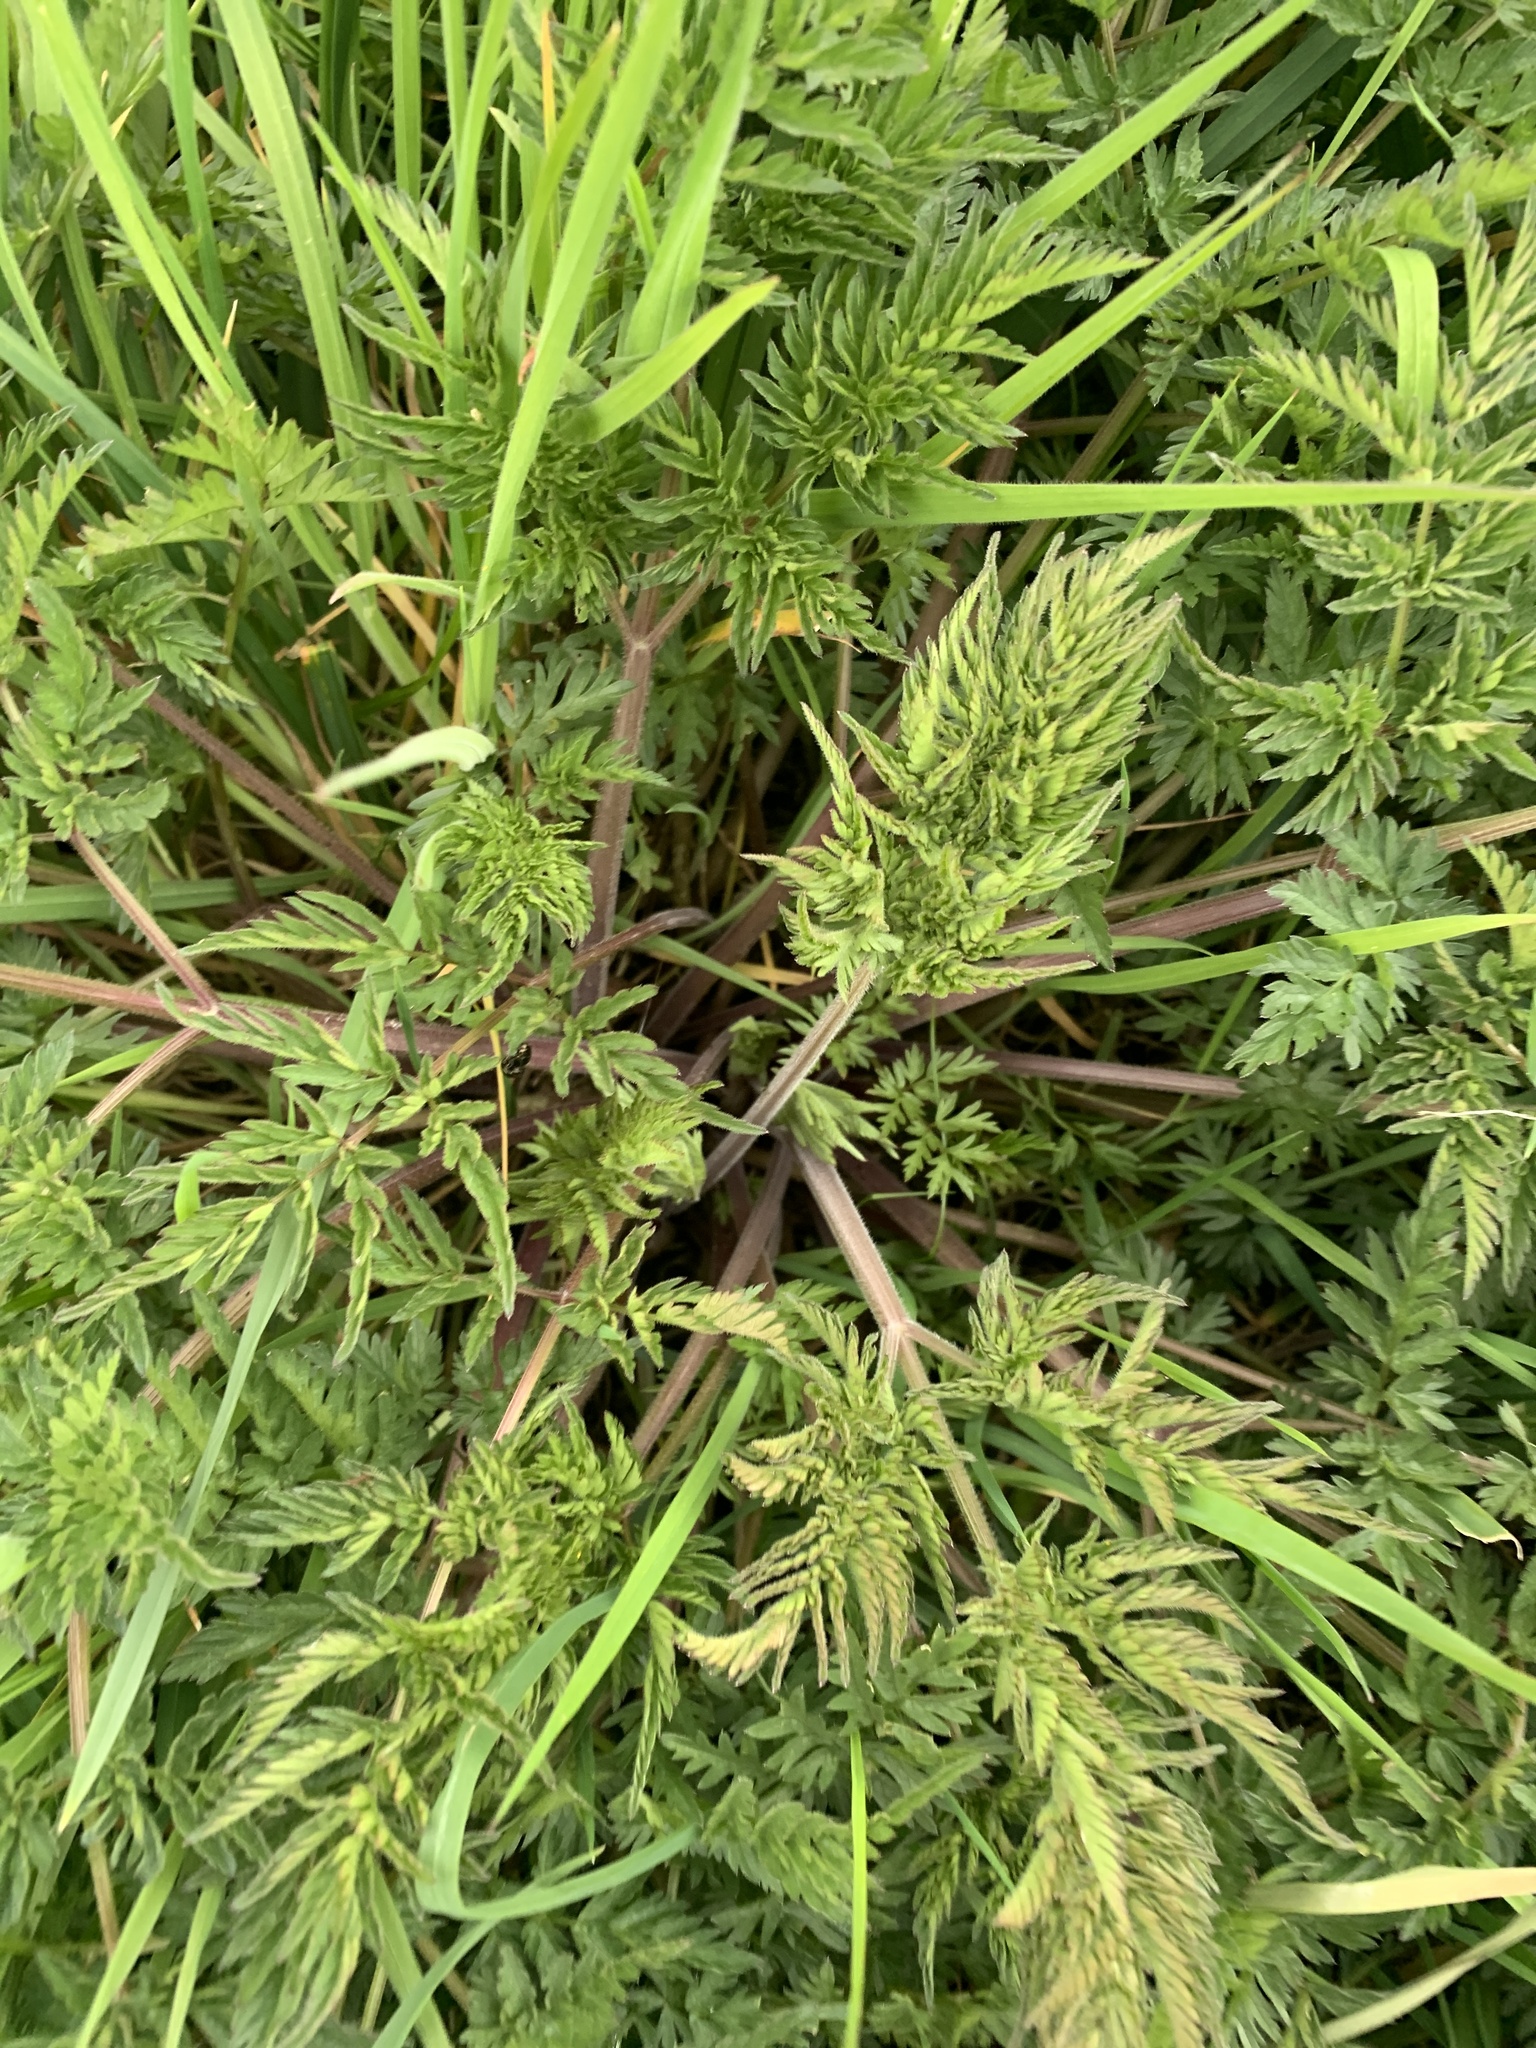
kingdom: Plantae
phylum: Tracheophyta
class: Magnoliopsida
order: Apiales
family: Apiaceae
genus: Anthriscus
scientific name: Anthriscus sylvestris
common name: Cow parsley
